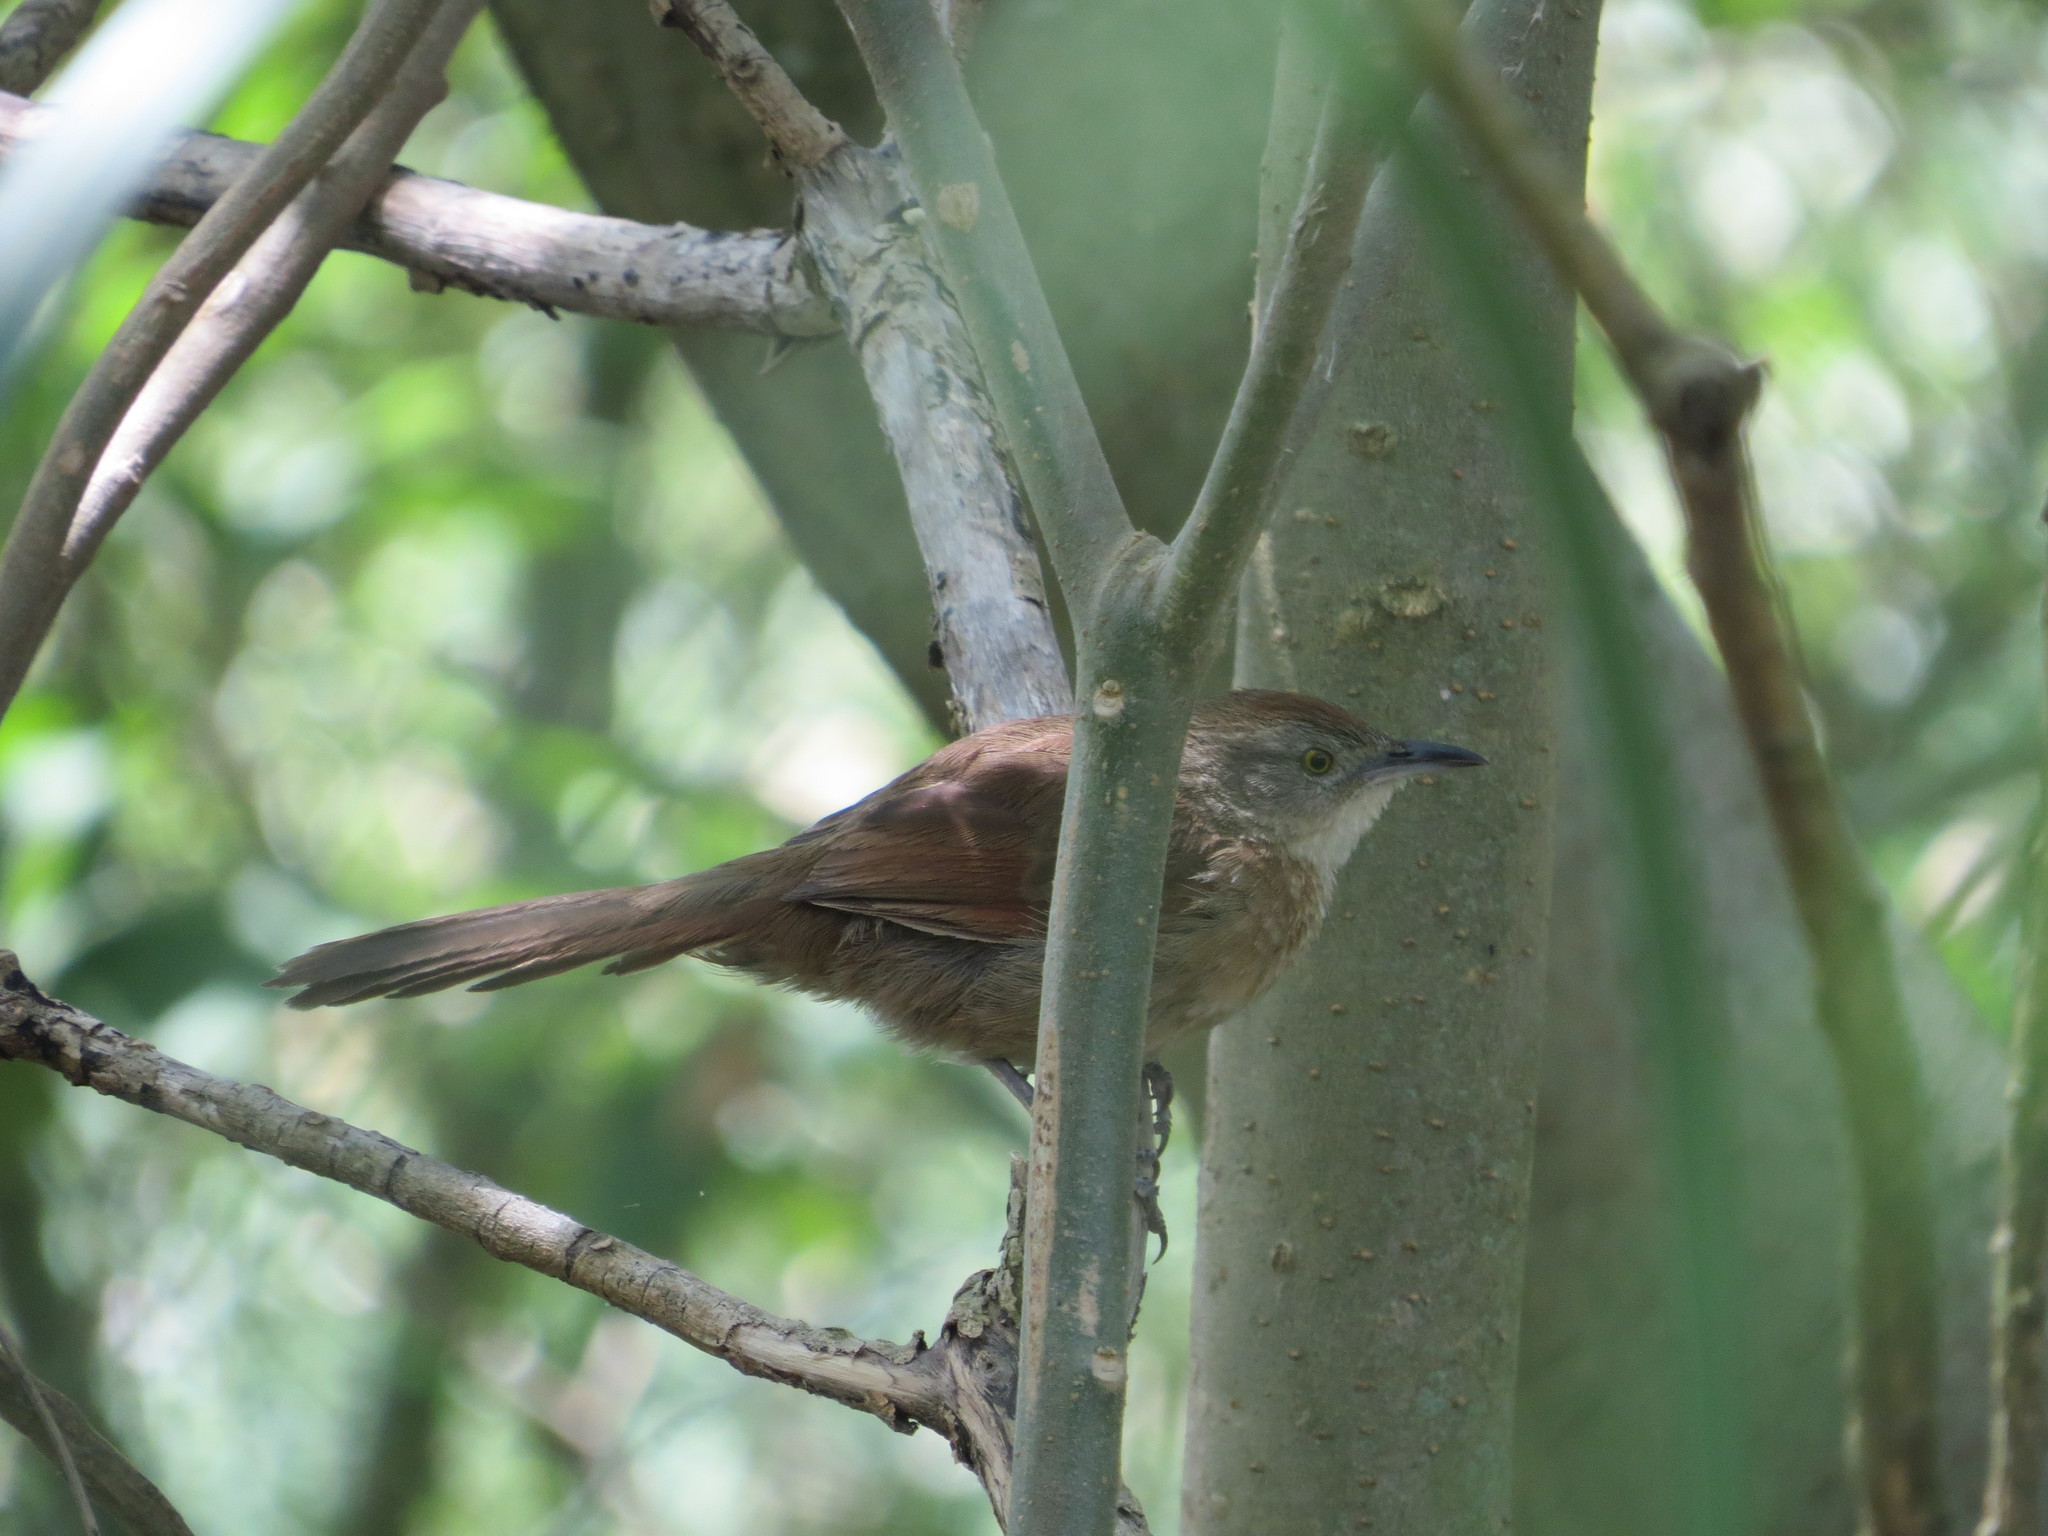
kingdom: Animalia
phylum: Chordata
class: Aves
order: Passeriformes
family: Furnariidae
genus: Phacellodomus
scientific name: Phacellodomus striaticollis
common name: Freckle-breasted thornbird
